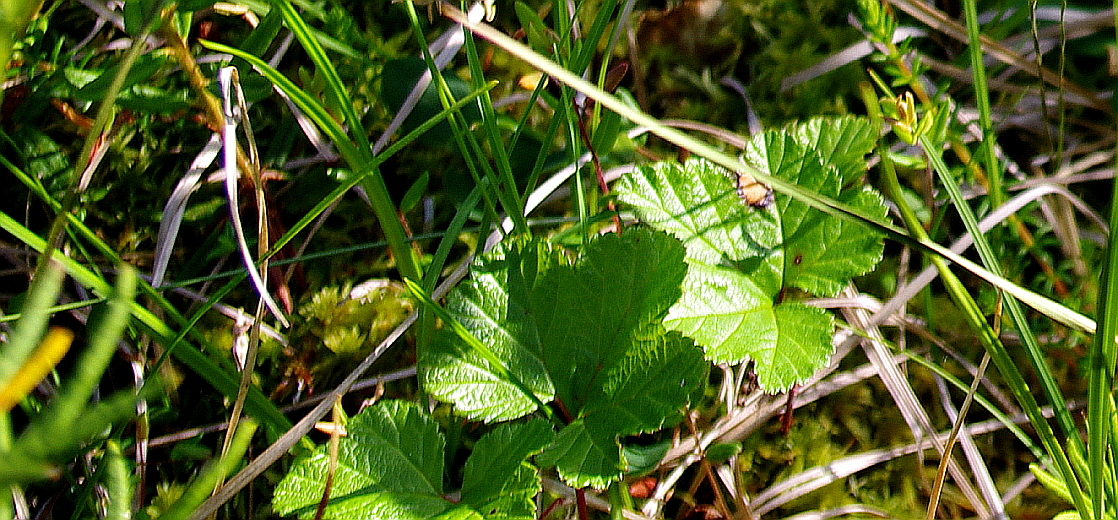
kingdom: Plantae
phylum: Tracheophyta
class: Magnoliopsida
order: Rosales
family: Rosaceae
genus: Rubus
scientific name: Rubus chamaemorus
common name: Cloudberry
